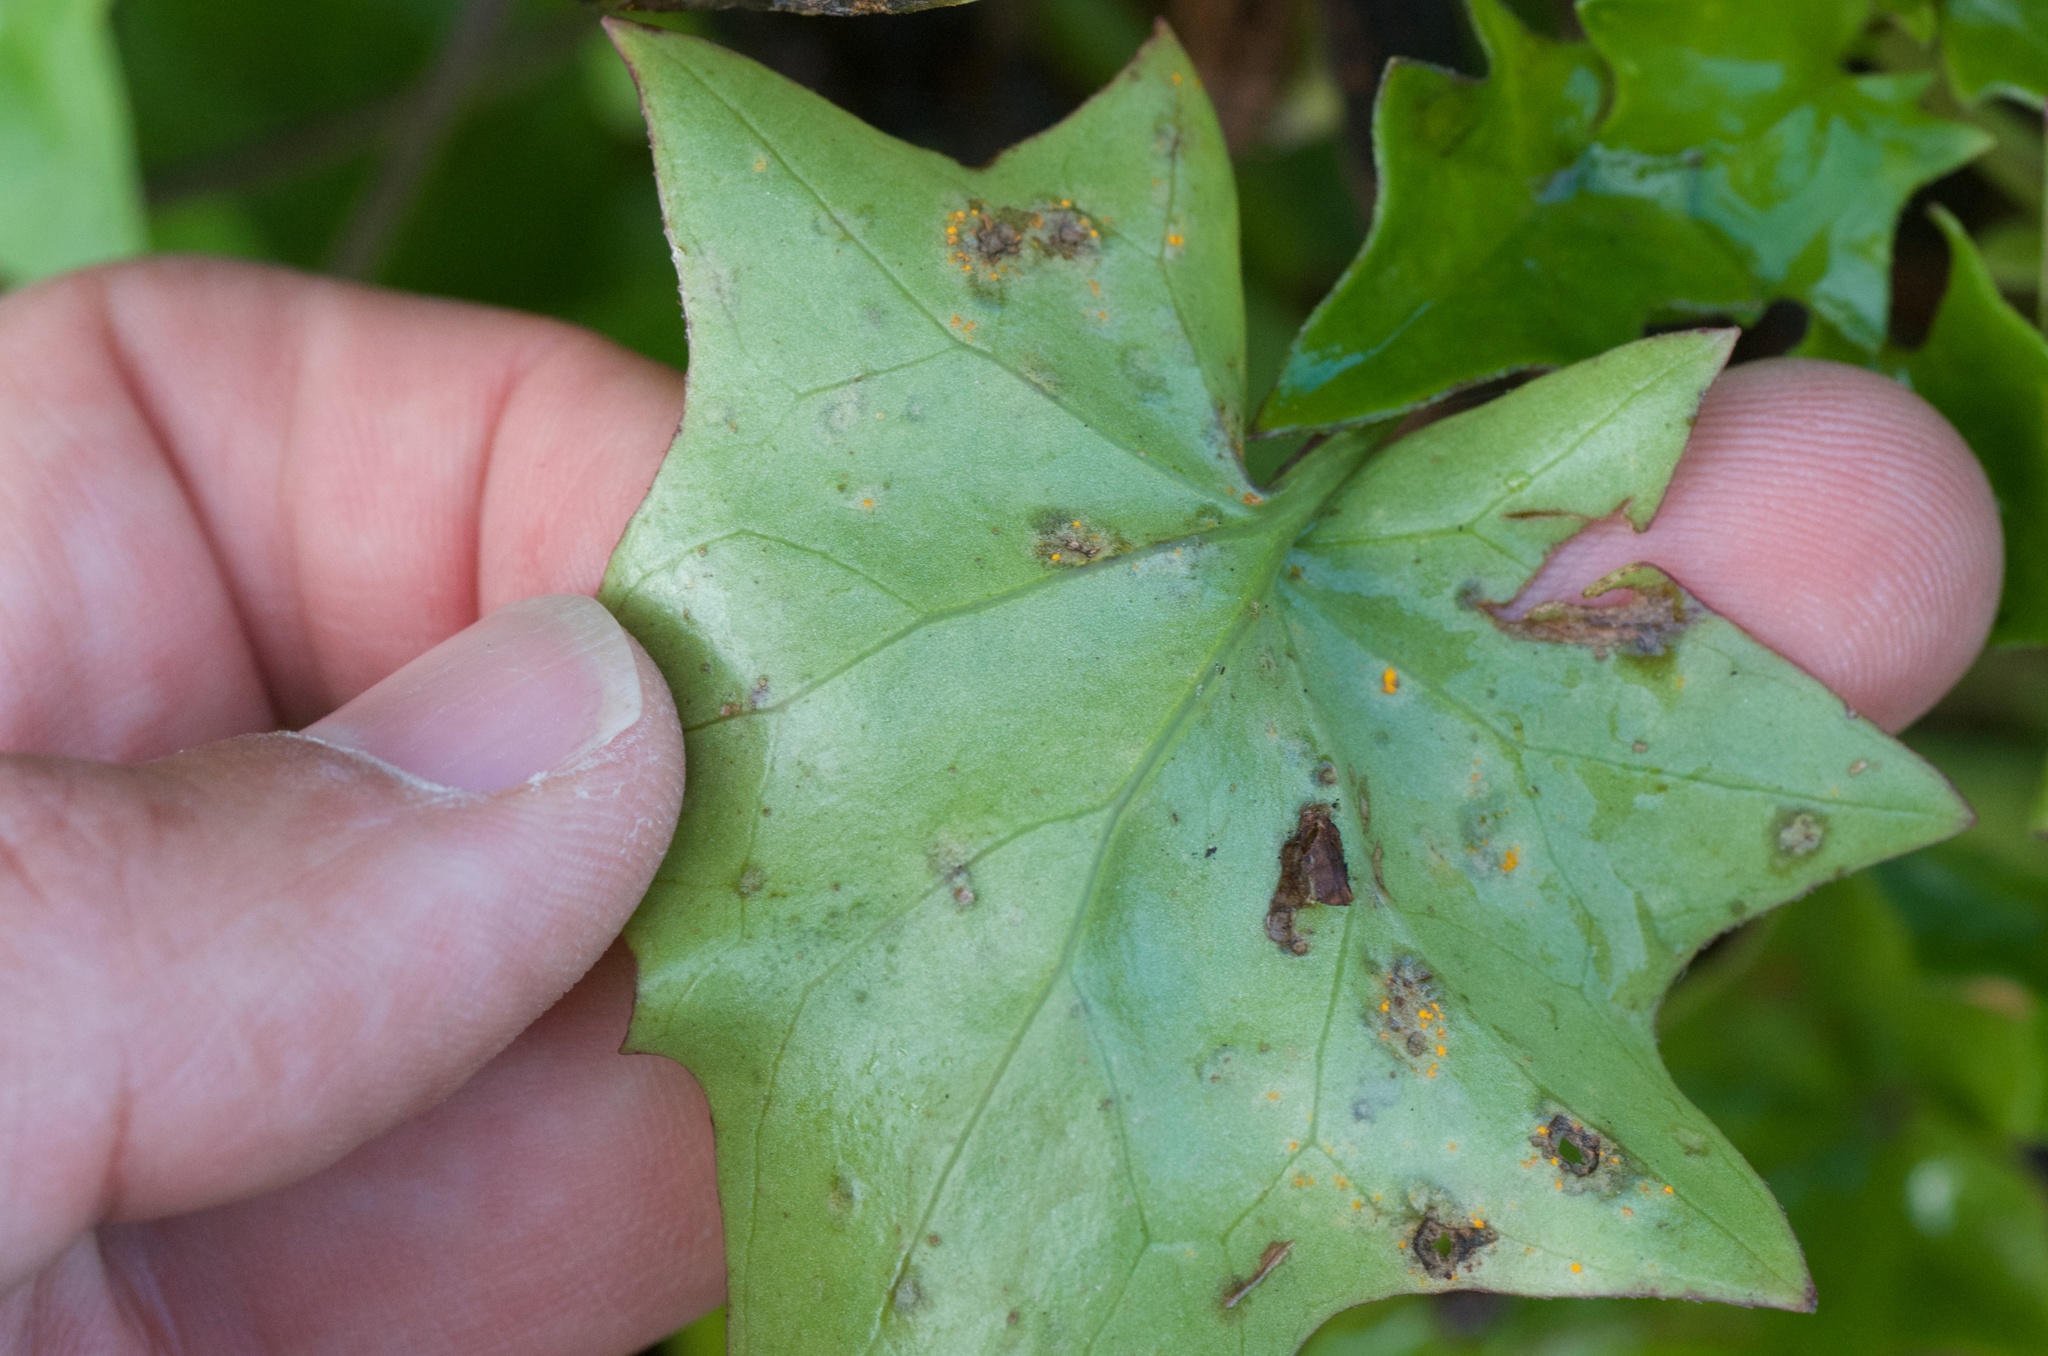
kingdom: Fungi
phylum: Basidiomycota
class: Pucciniomycetes
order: Pucciniales
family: Coleosporiaceae
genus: Coleosporium
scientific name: Coleosporium tussilaginis
